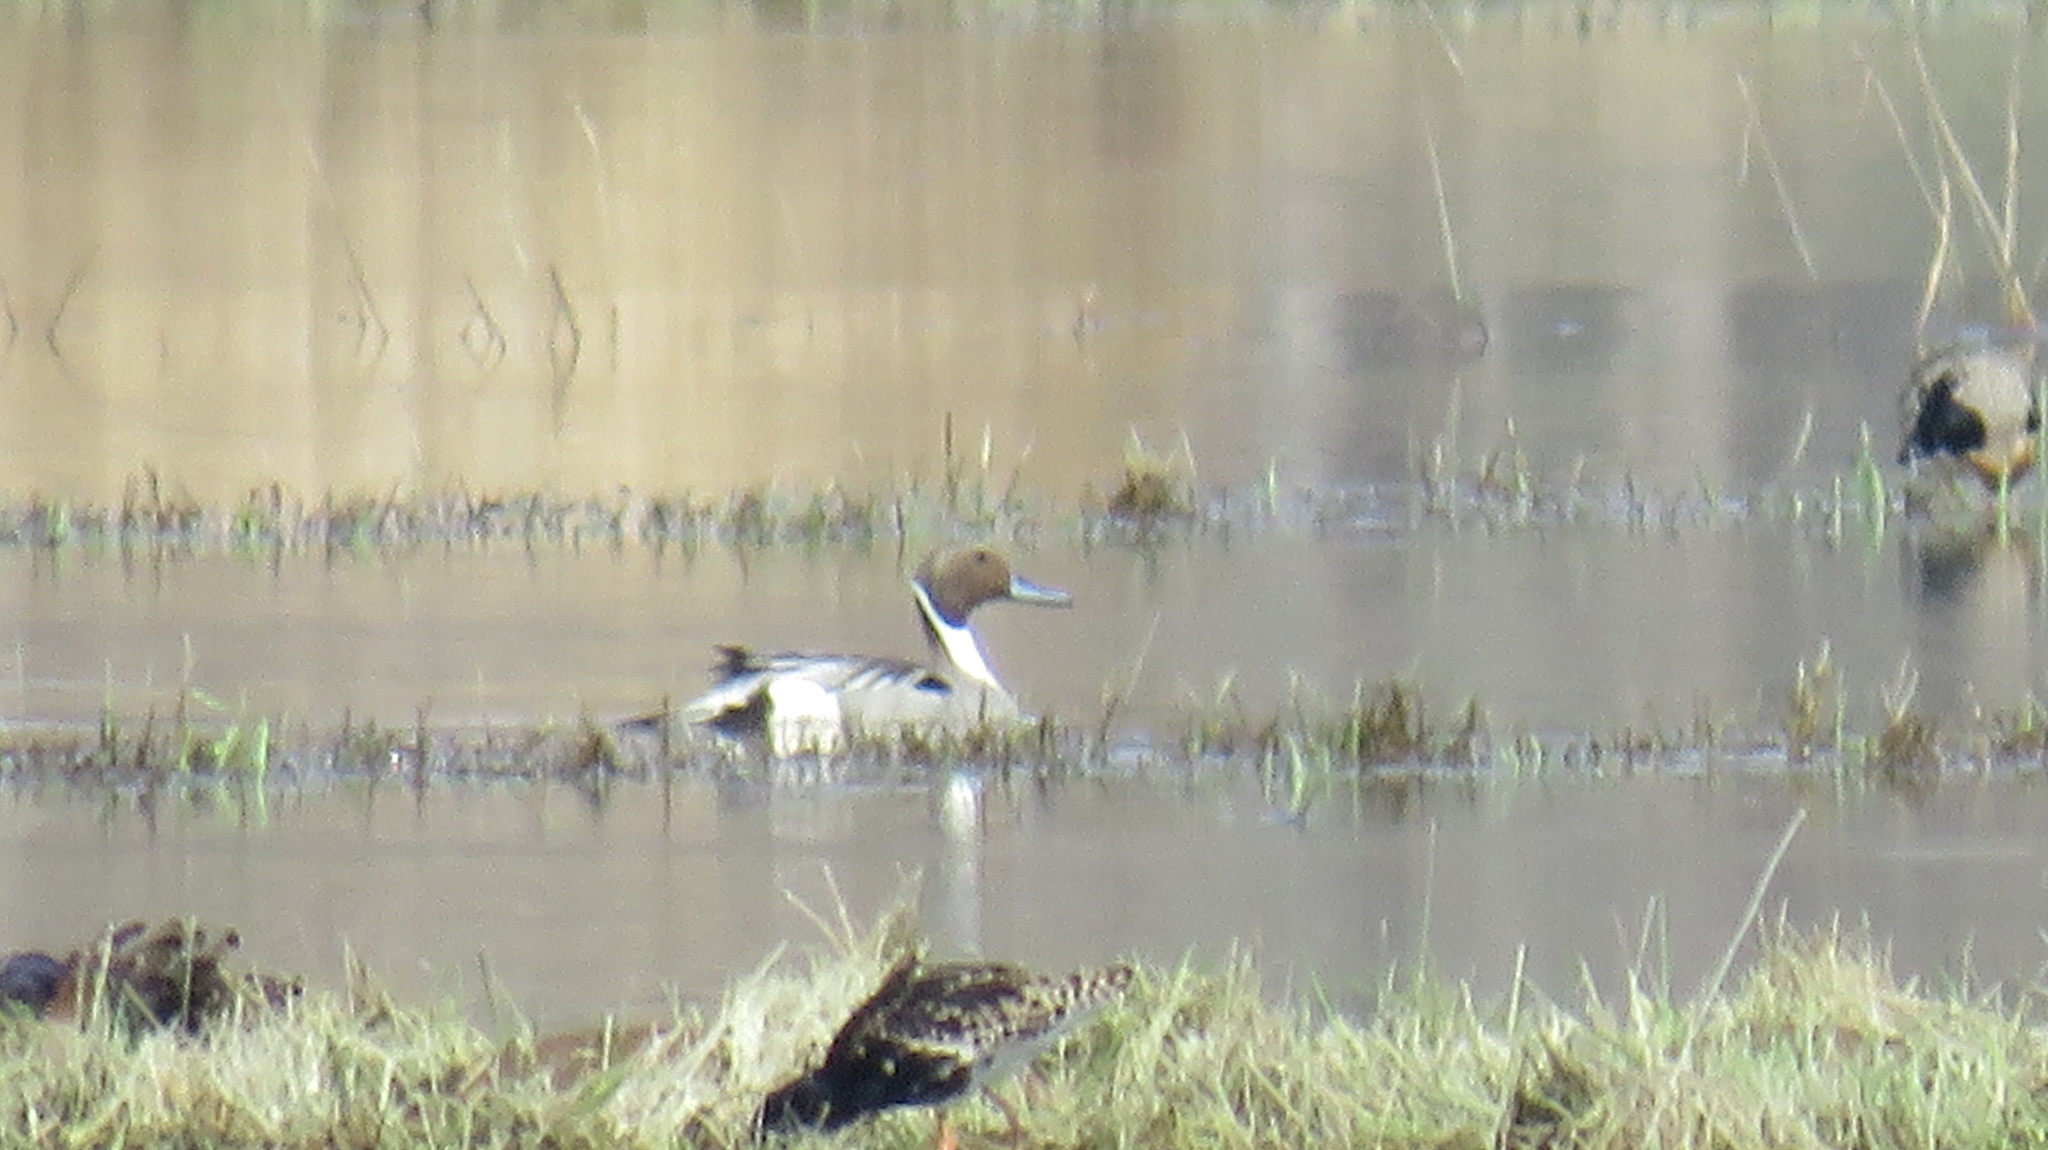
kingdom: Animalia
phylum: Chordata
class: Aves
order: Anseriformes
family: Anatidae
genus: Anas
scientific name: Anas acuta
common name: Northern pintail
